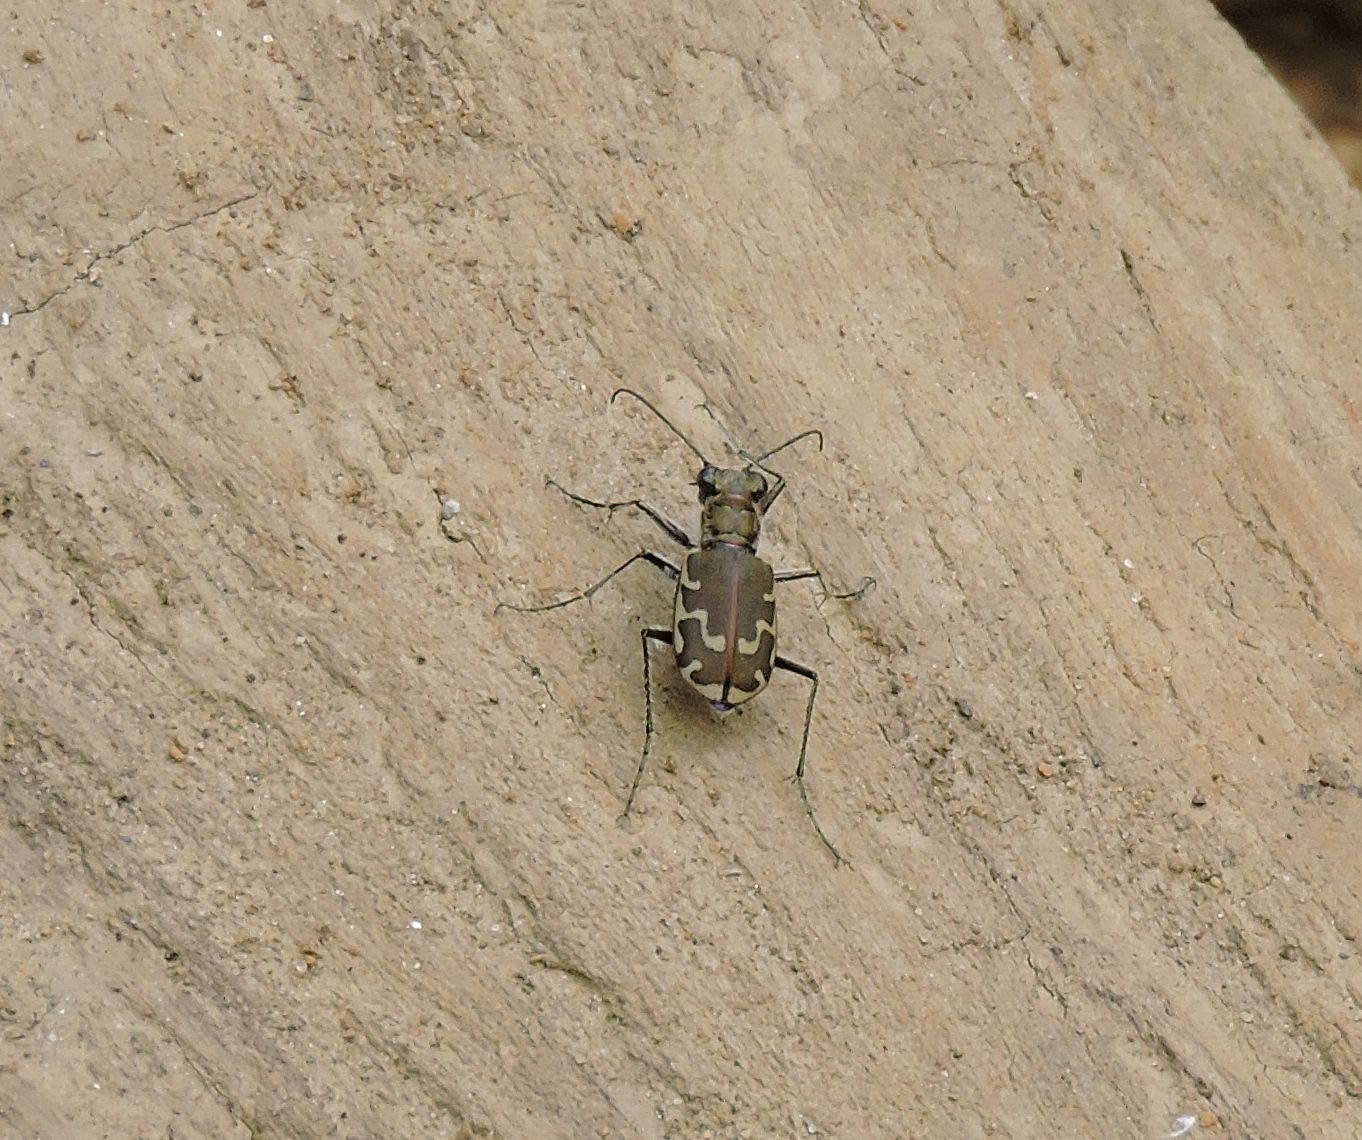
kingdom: Animalia
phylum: Arthropoda
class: Insecta
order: Coleoptera
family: Carabidae
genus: Cicindela
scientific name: Cicindela repanda
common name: Bronzed tiger beetle
